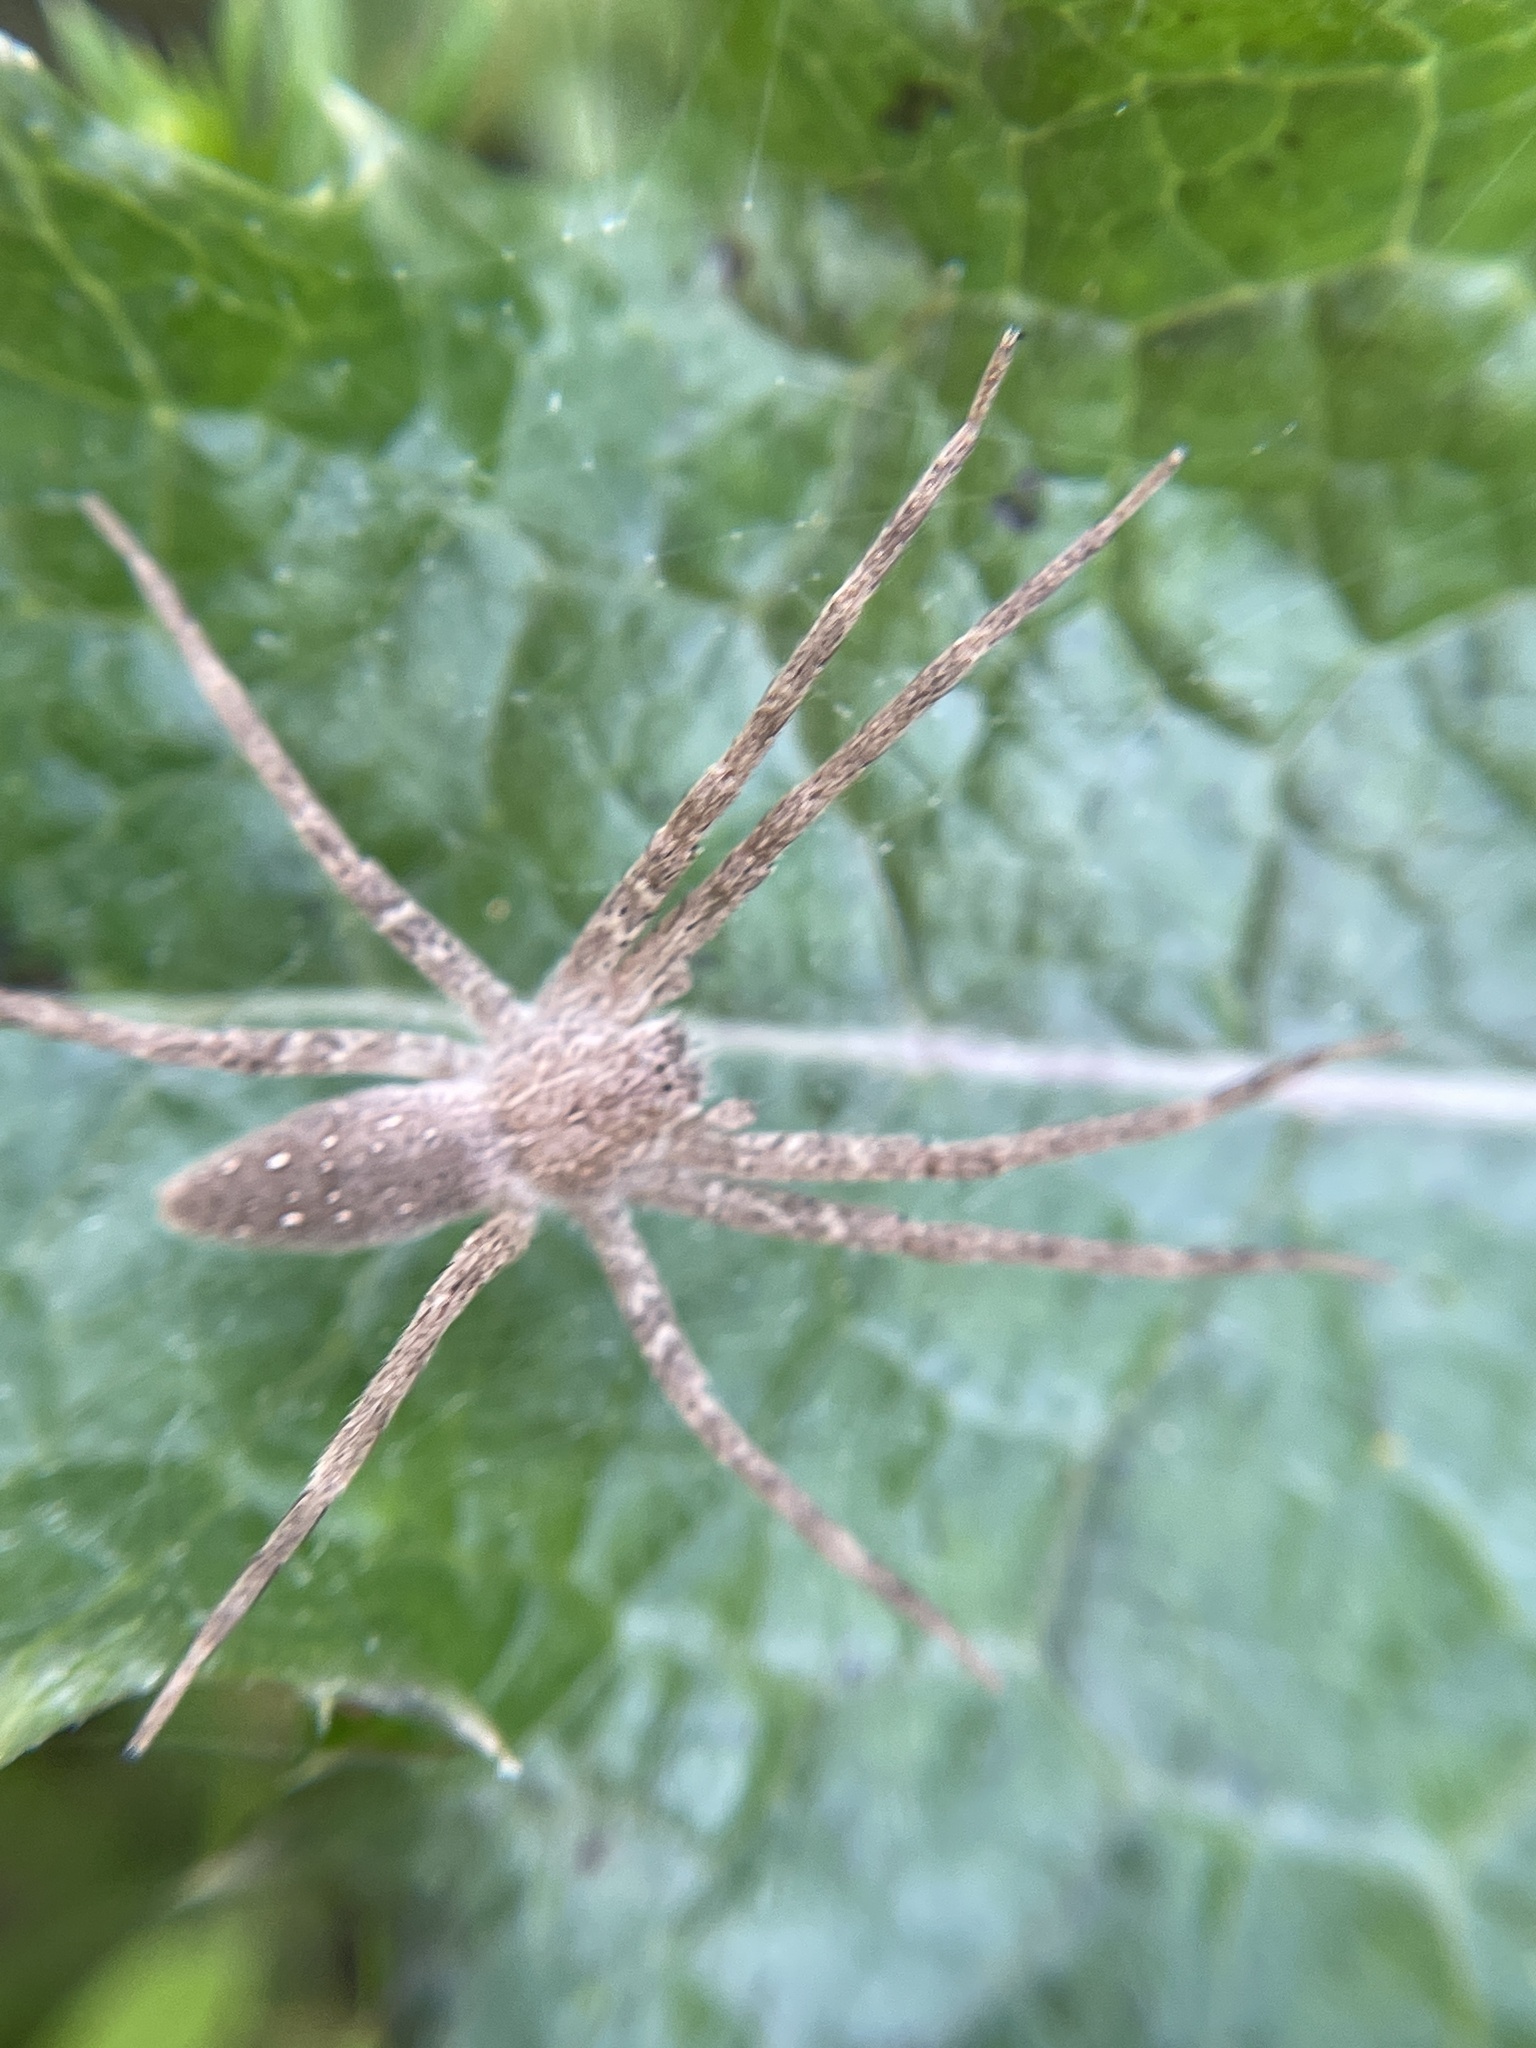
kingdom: Animalia
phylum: Arthropoda
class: Arachnida
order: Araneae
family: Pisauridae
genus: Pisaurina
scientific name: Pisaurina mira
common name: American nursery web spider
